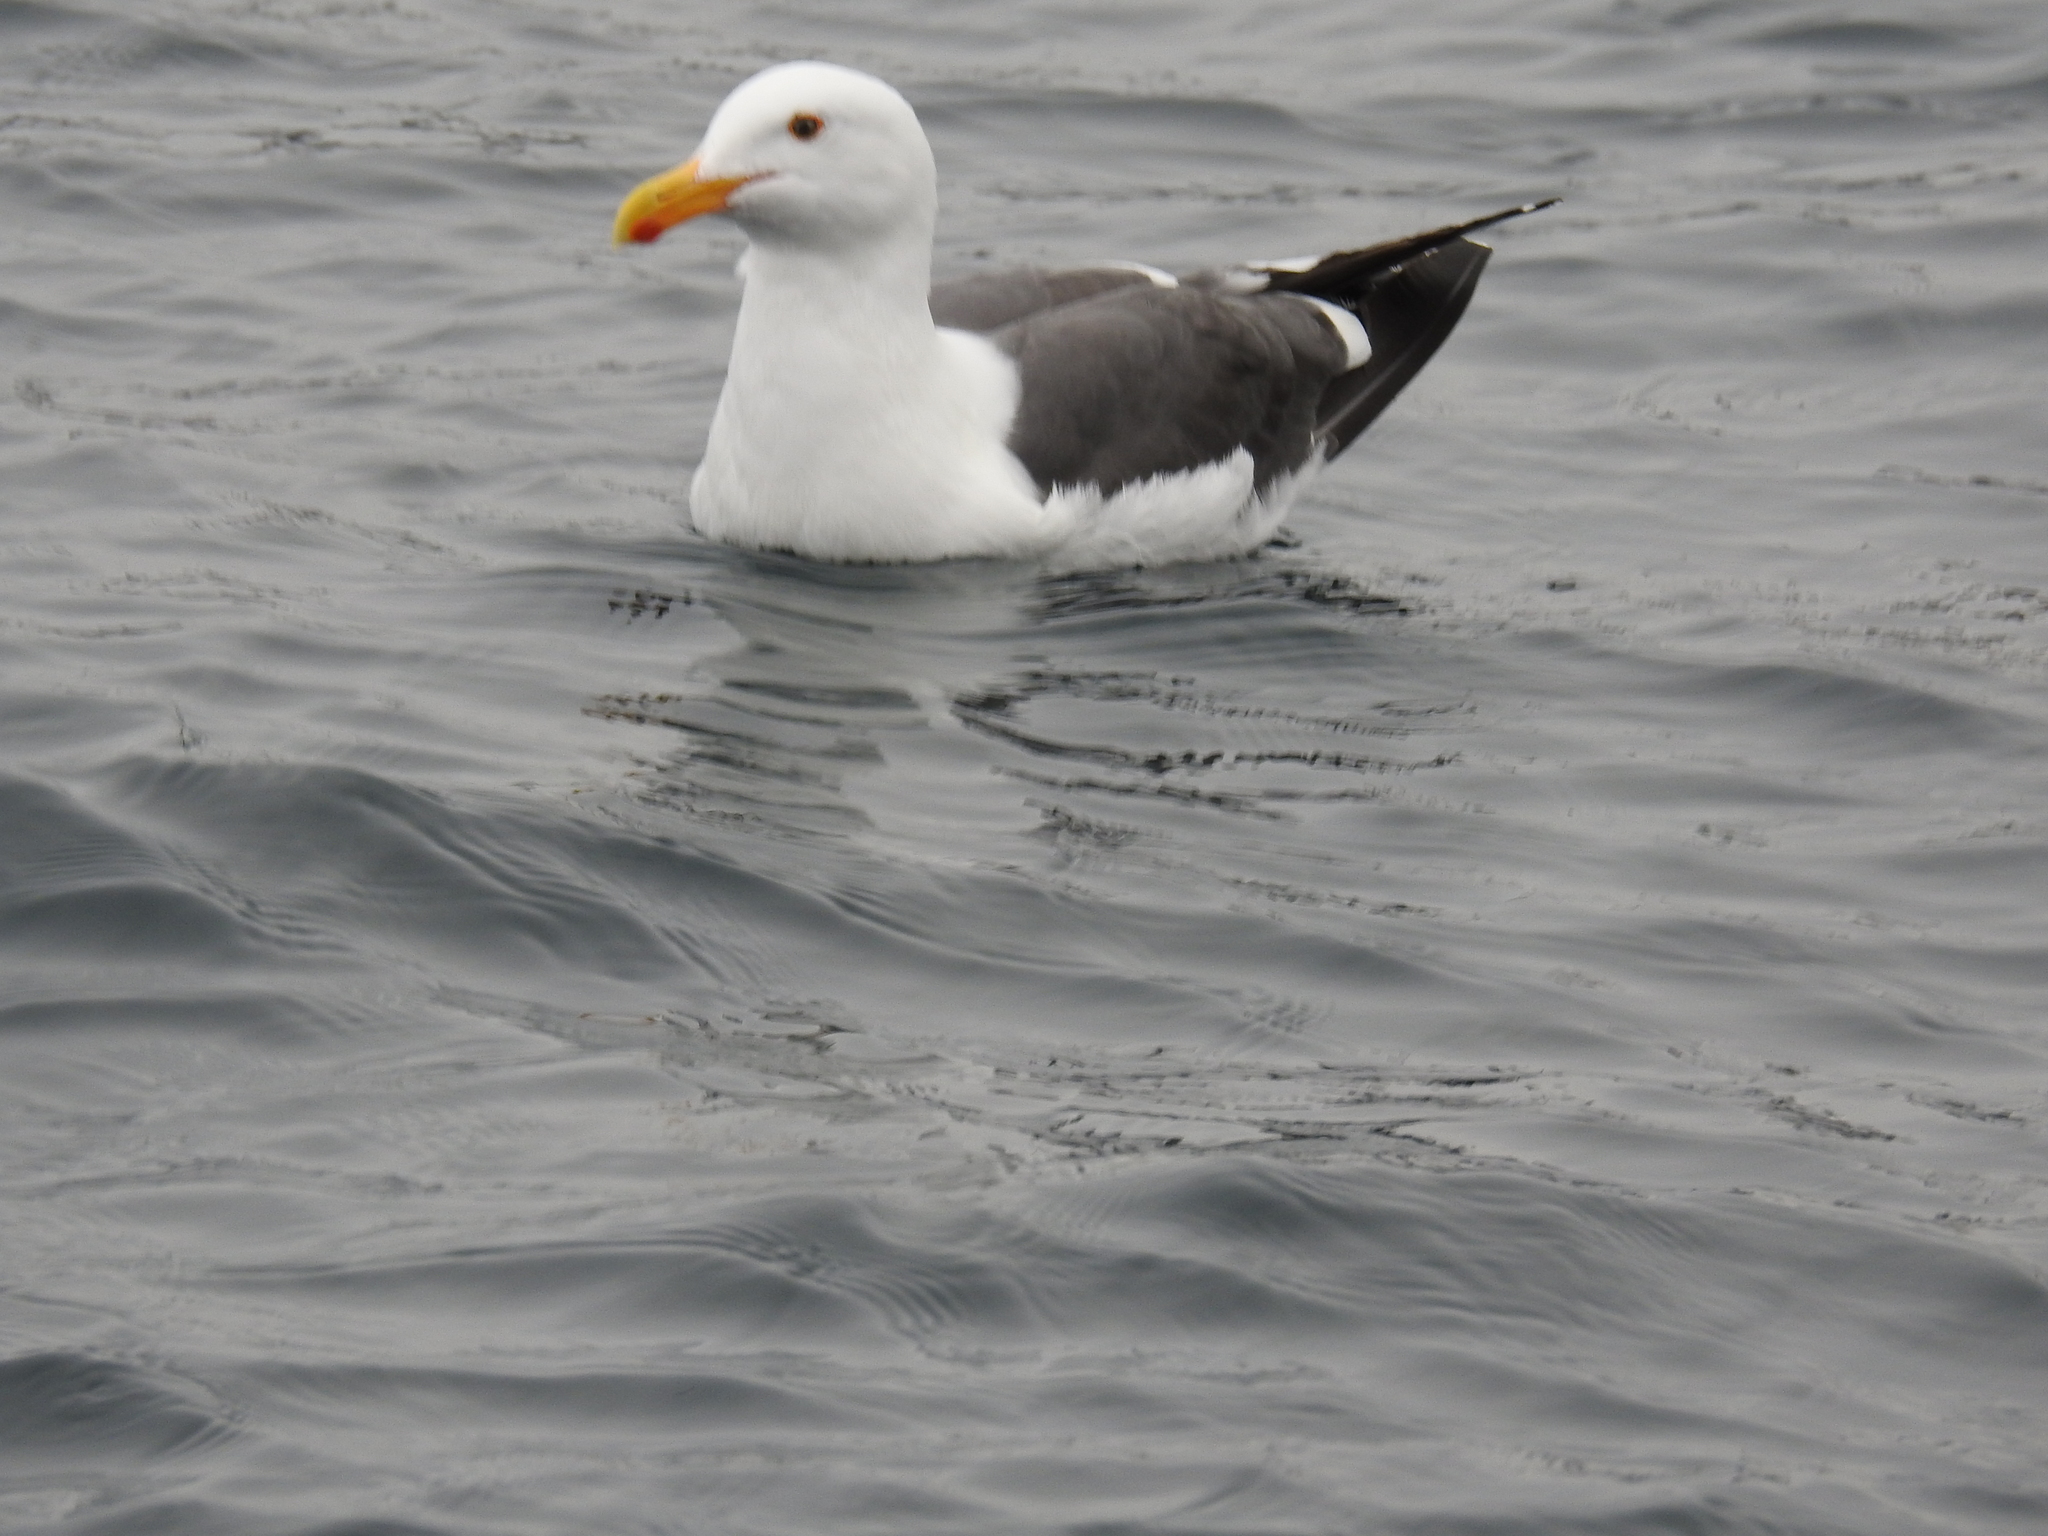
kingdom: Animalia
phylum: Chordata
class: Aves
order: Charadriiformes
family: Laridae
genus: Larus
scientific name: Larus occidentalis
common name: Western gull
